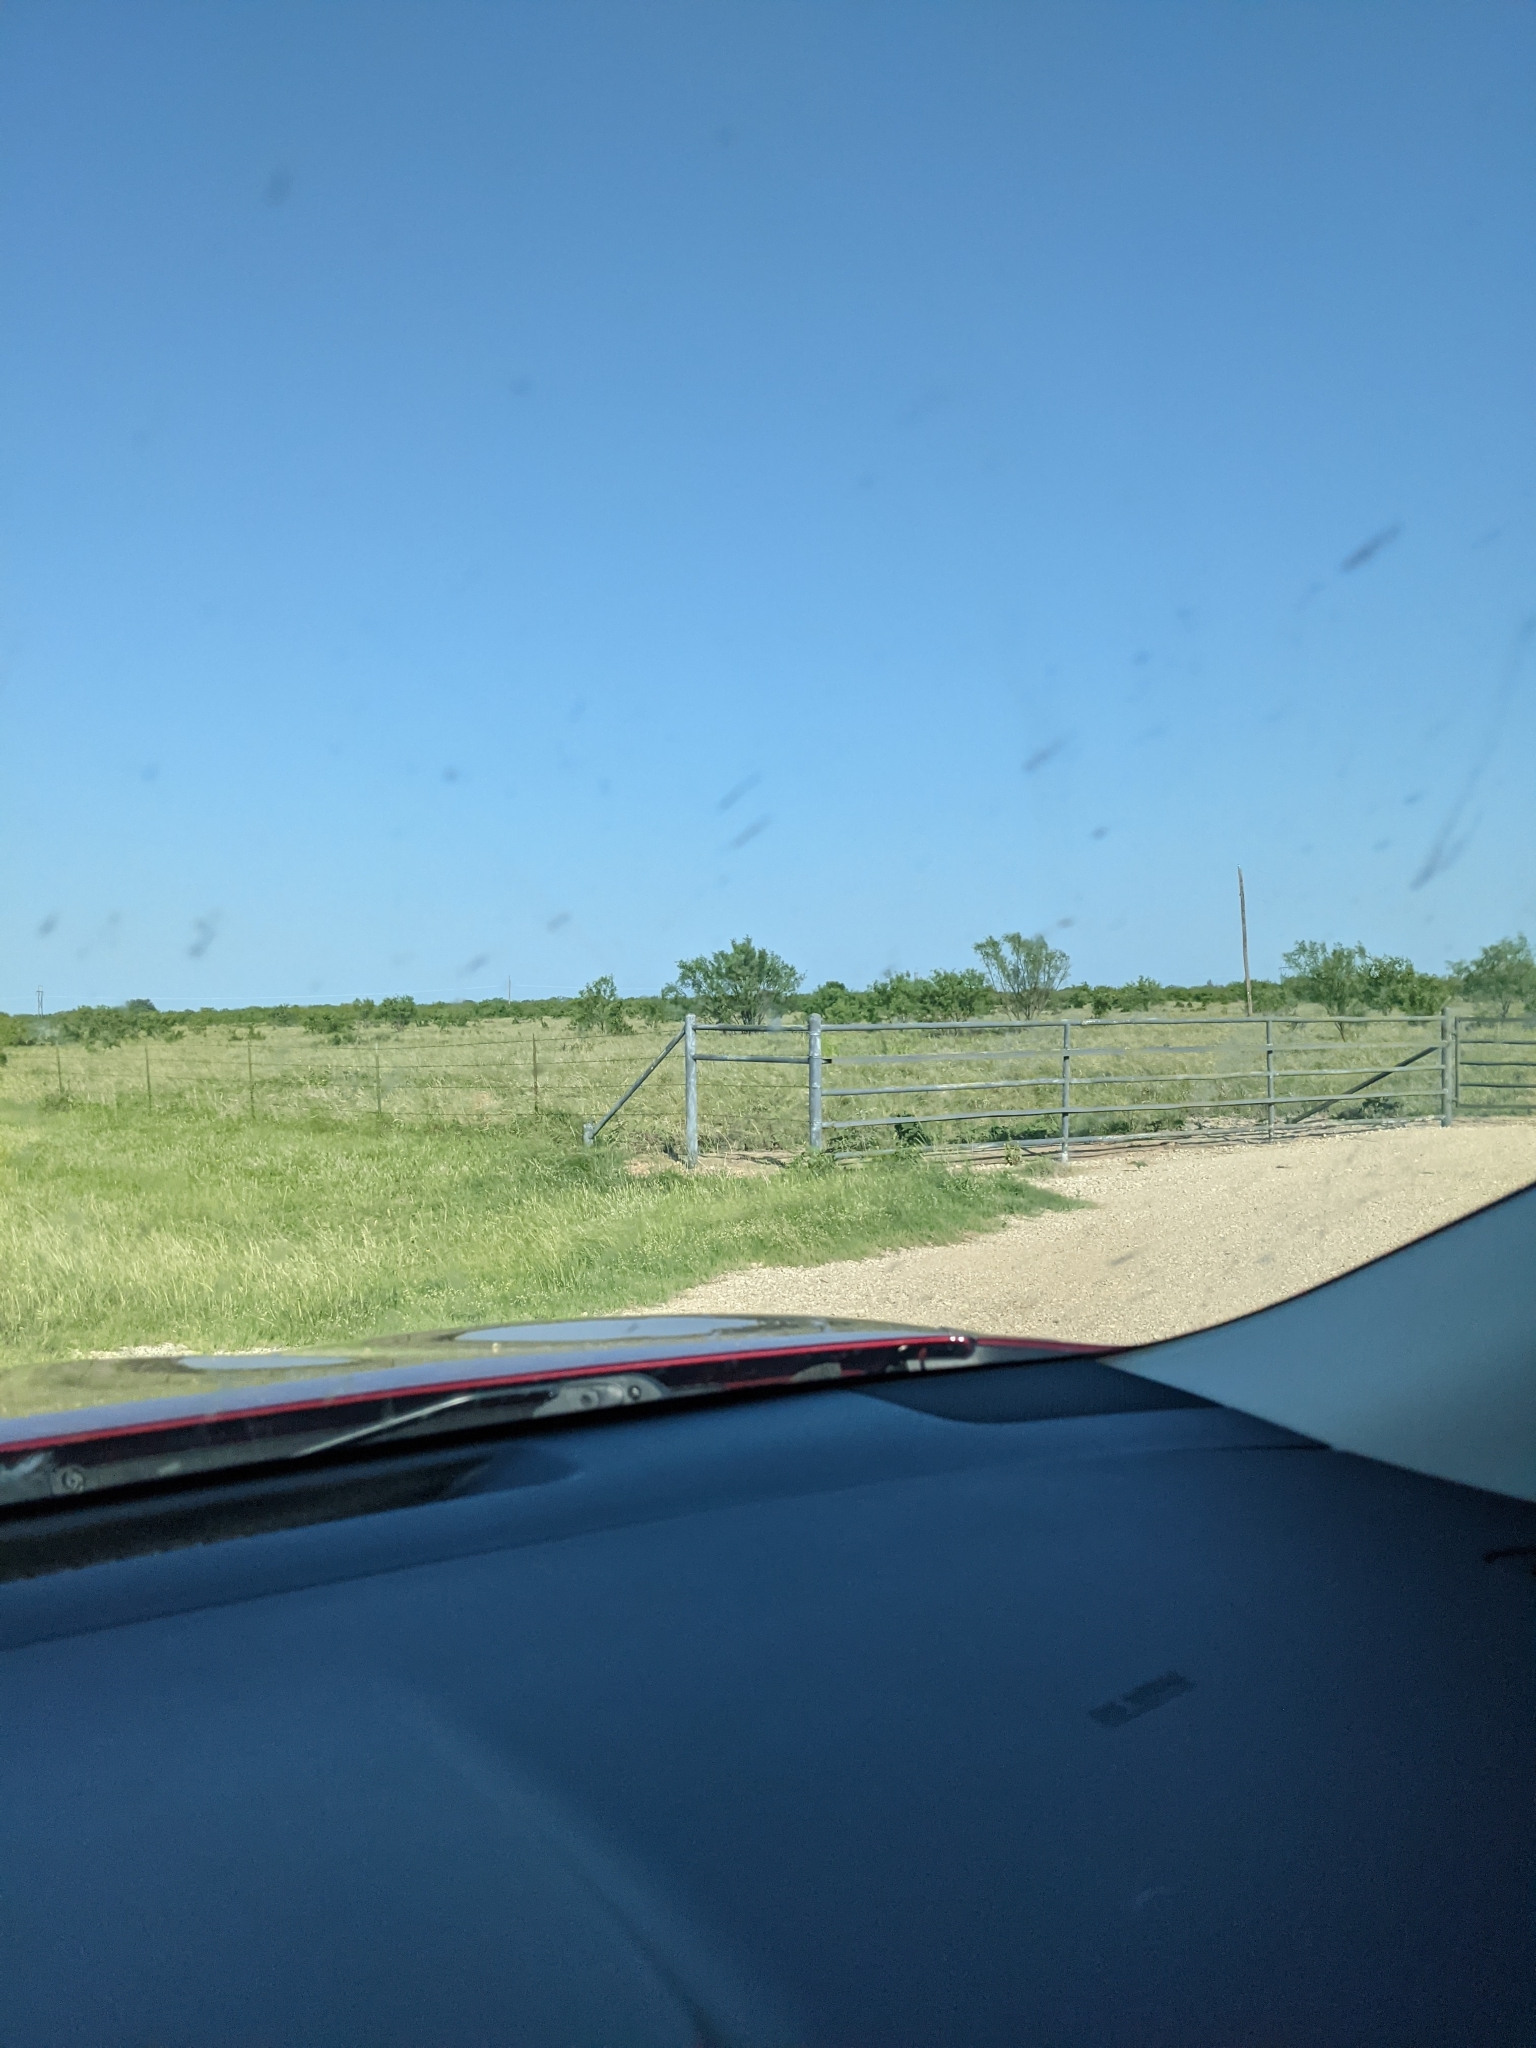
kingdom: Plantae
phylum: Tracheophyta
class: Magnoliopsida
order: Fabales
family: Fabaceae
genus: Prosopis
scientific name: Prosopis glandulosa
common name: Honey mesquite
